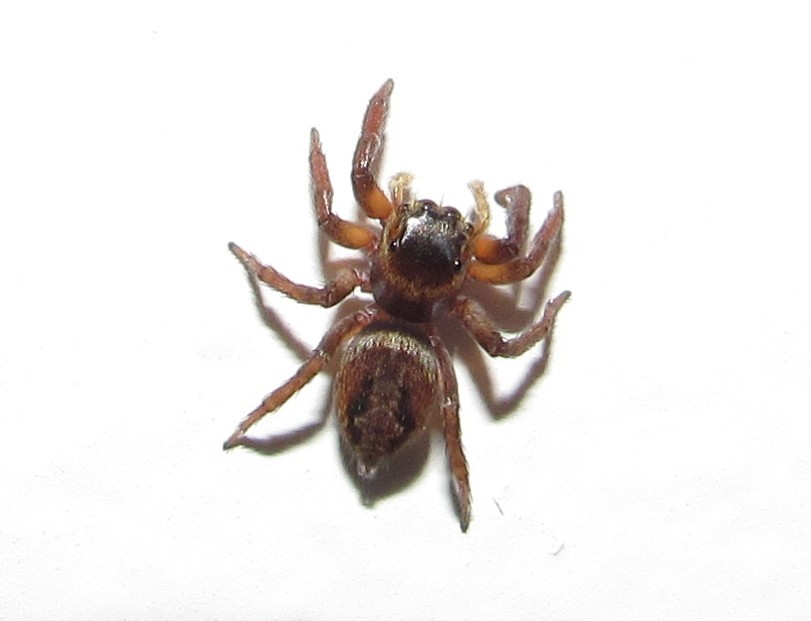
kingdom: Animalia
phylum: Arthropoda
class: Arachnida
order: Araneae
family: Salticidae
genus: Hasarius
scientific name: Hasarius adansoni
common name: Jumping spider
